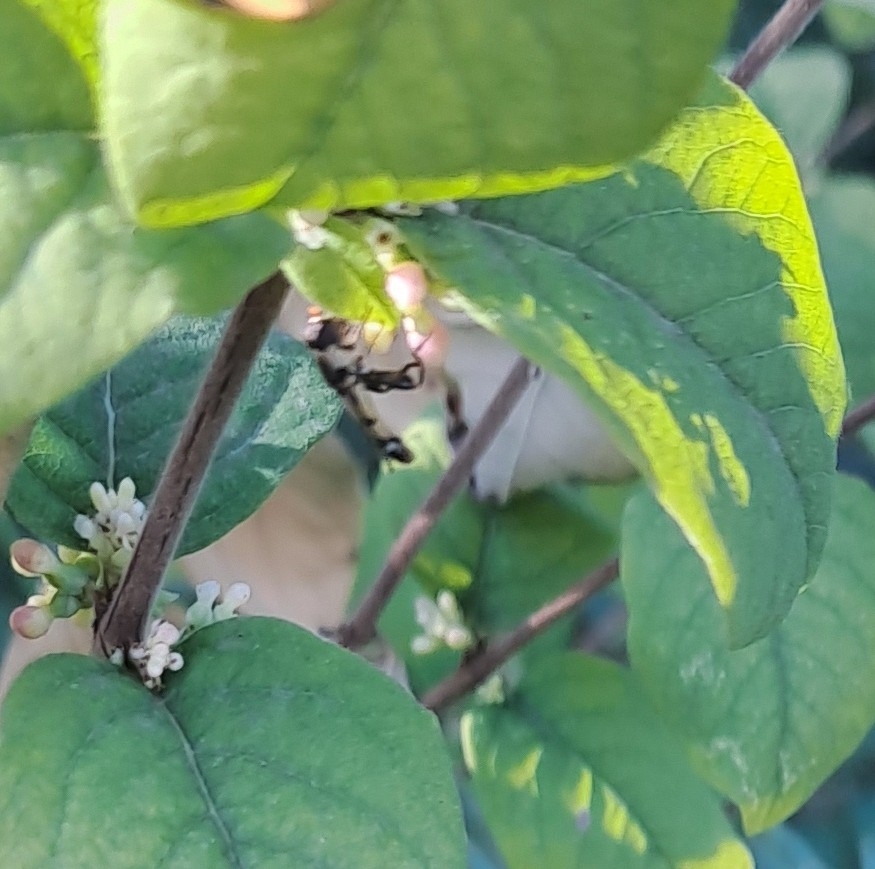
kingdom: Animalia
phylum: Arthropoda
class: Insecta
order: Diptera
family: Syrphidae
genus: Syritta
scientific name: Syritta pipiens
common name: Hover fly
